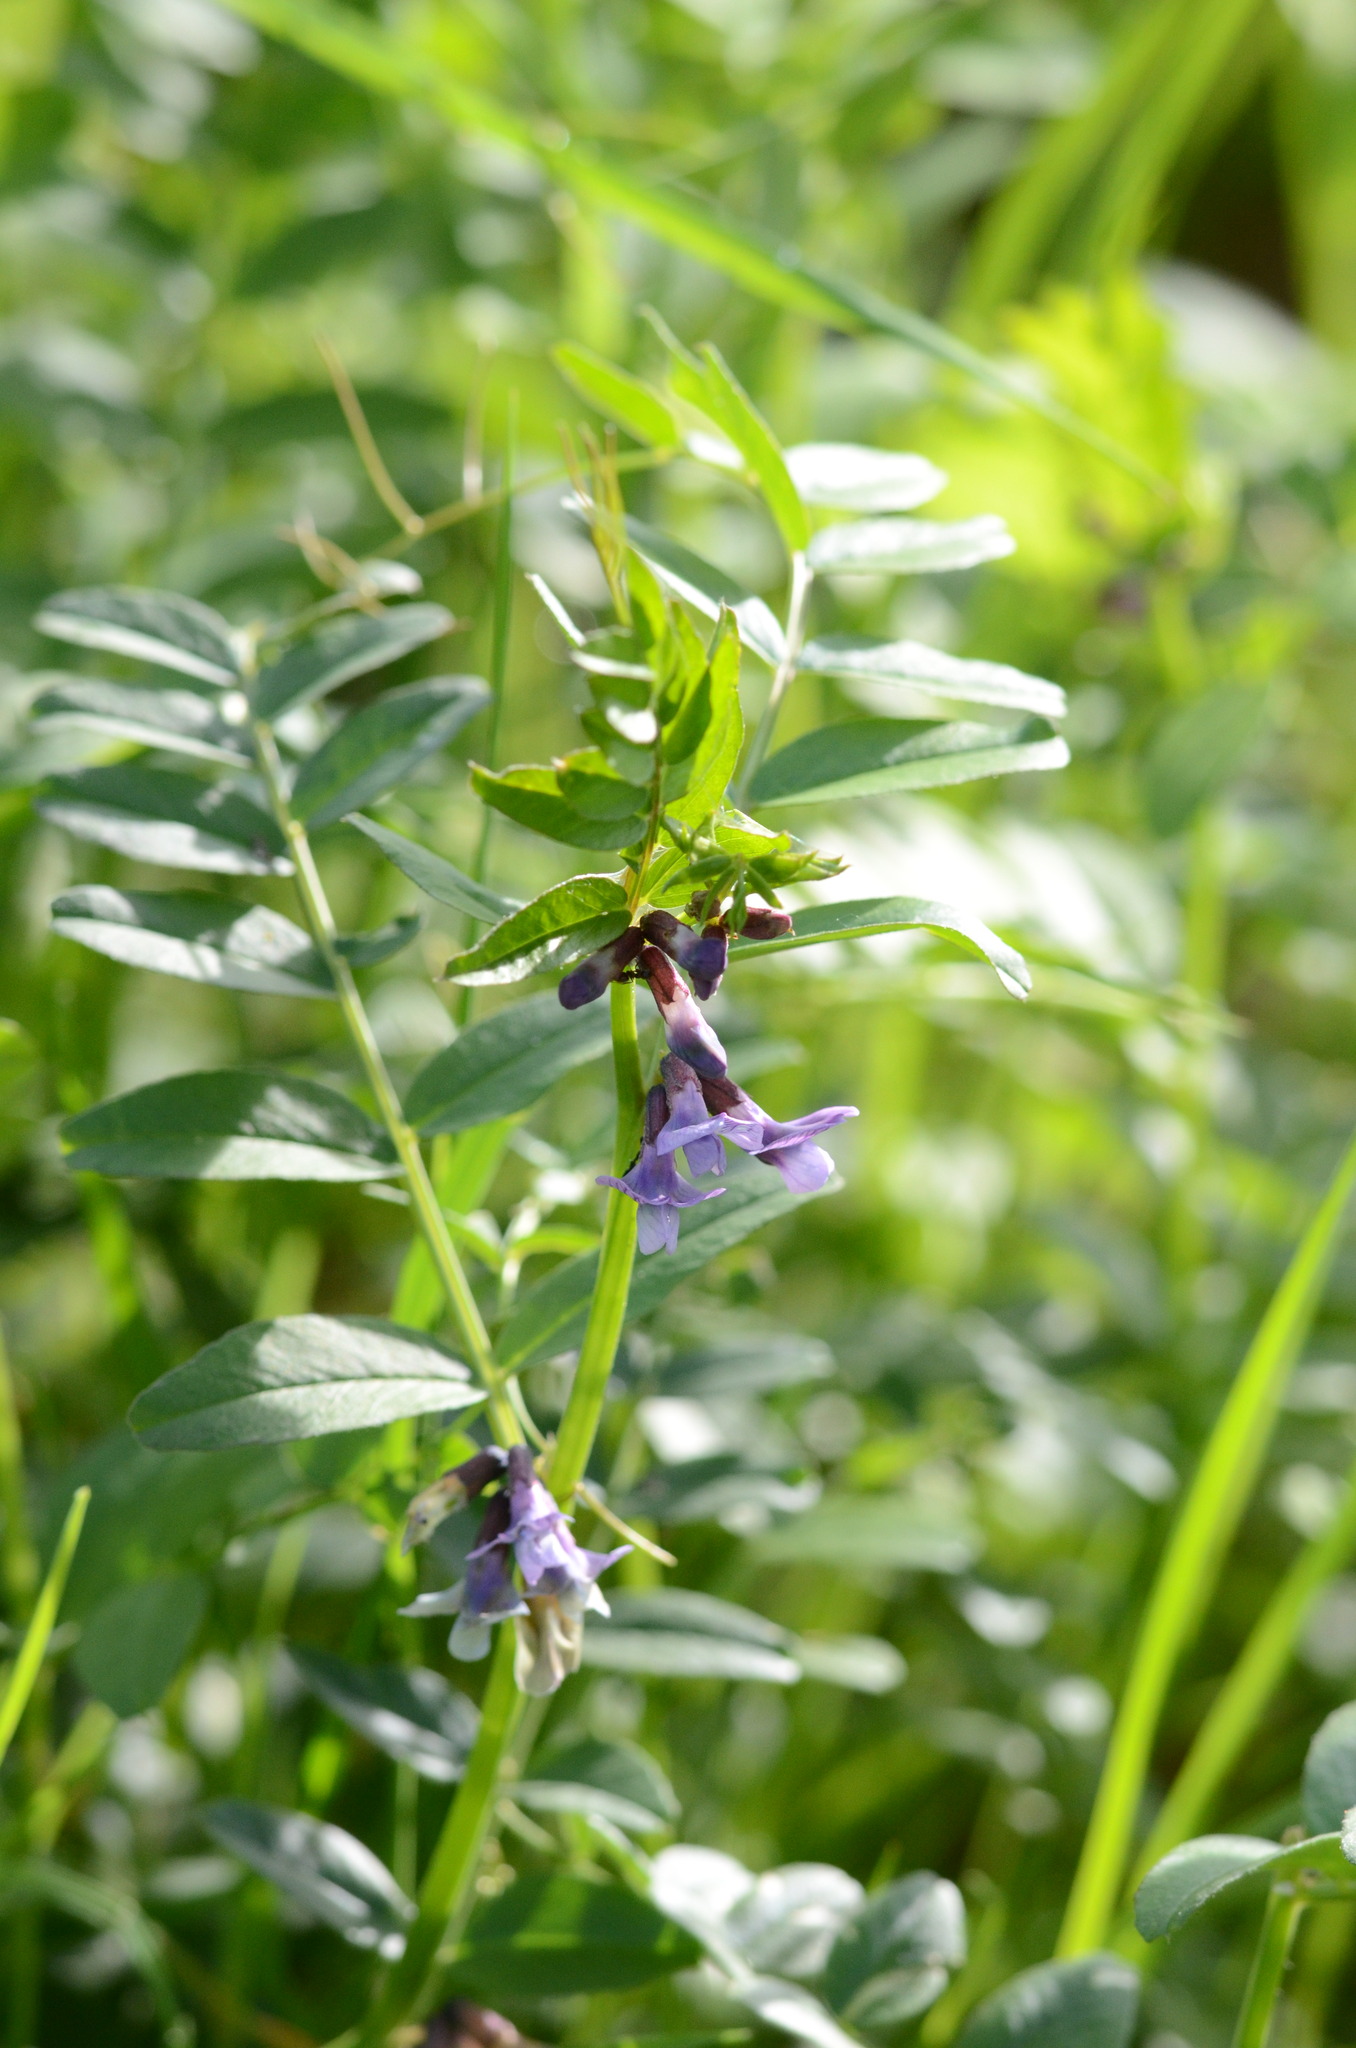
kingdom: Plantae
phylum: Tracheophyta
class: Magnoliopsida
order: Fabales
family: Fabaceae
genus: Vicia
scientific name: Vicia sepium
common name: Bush vetch
